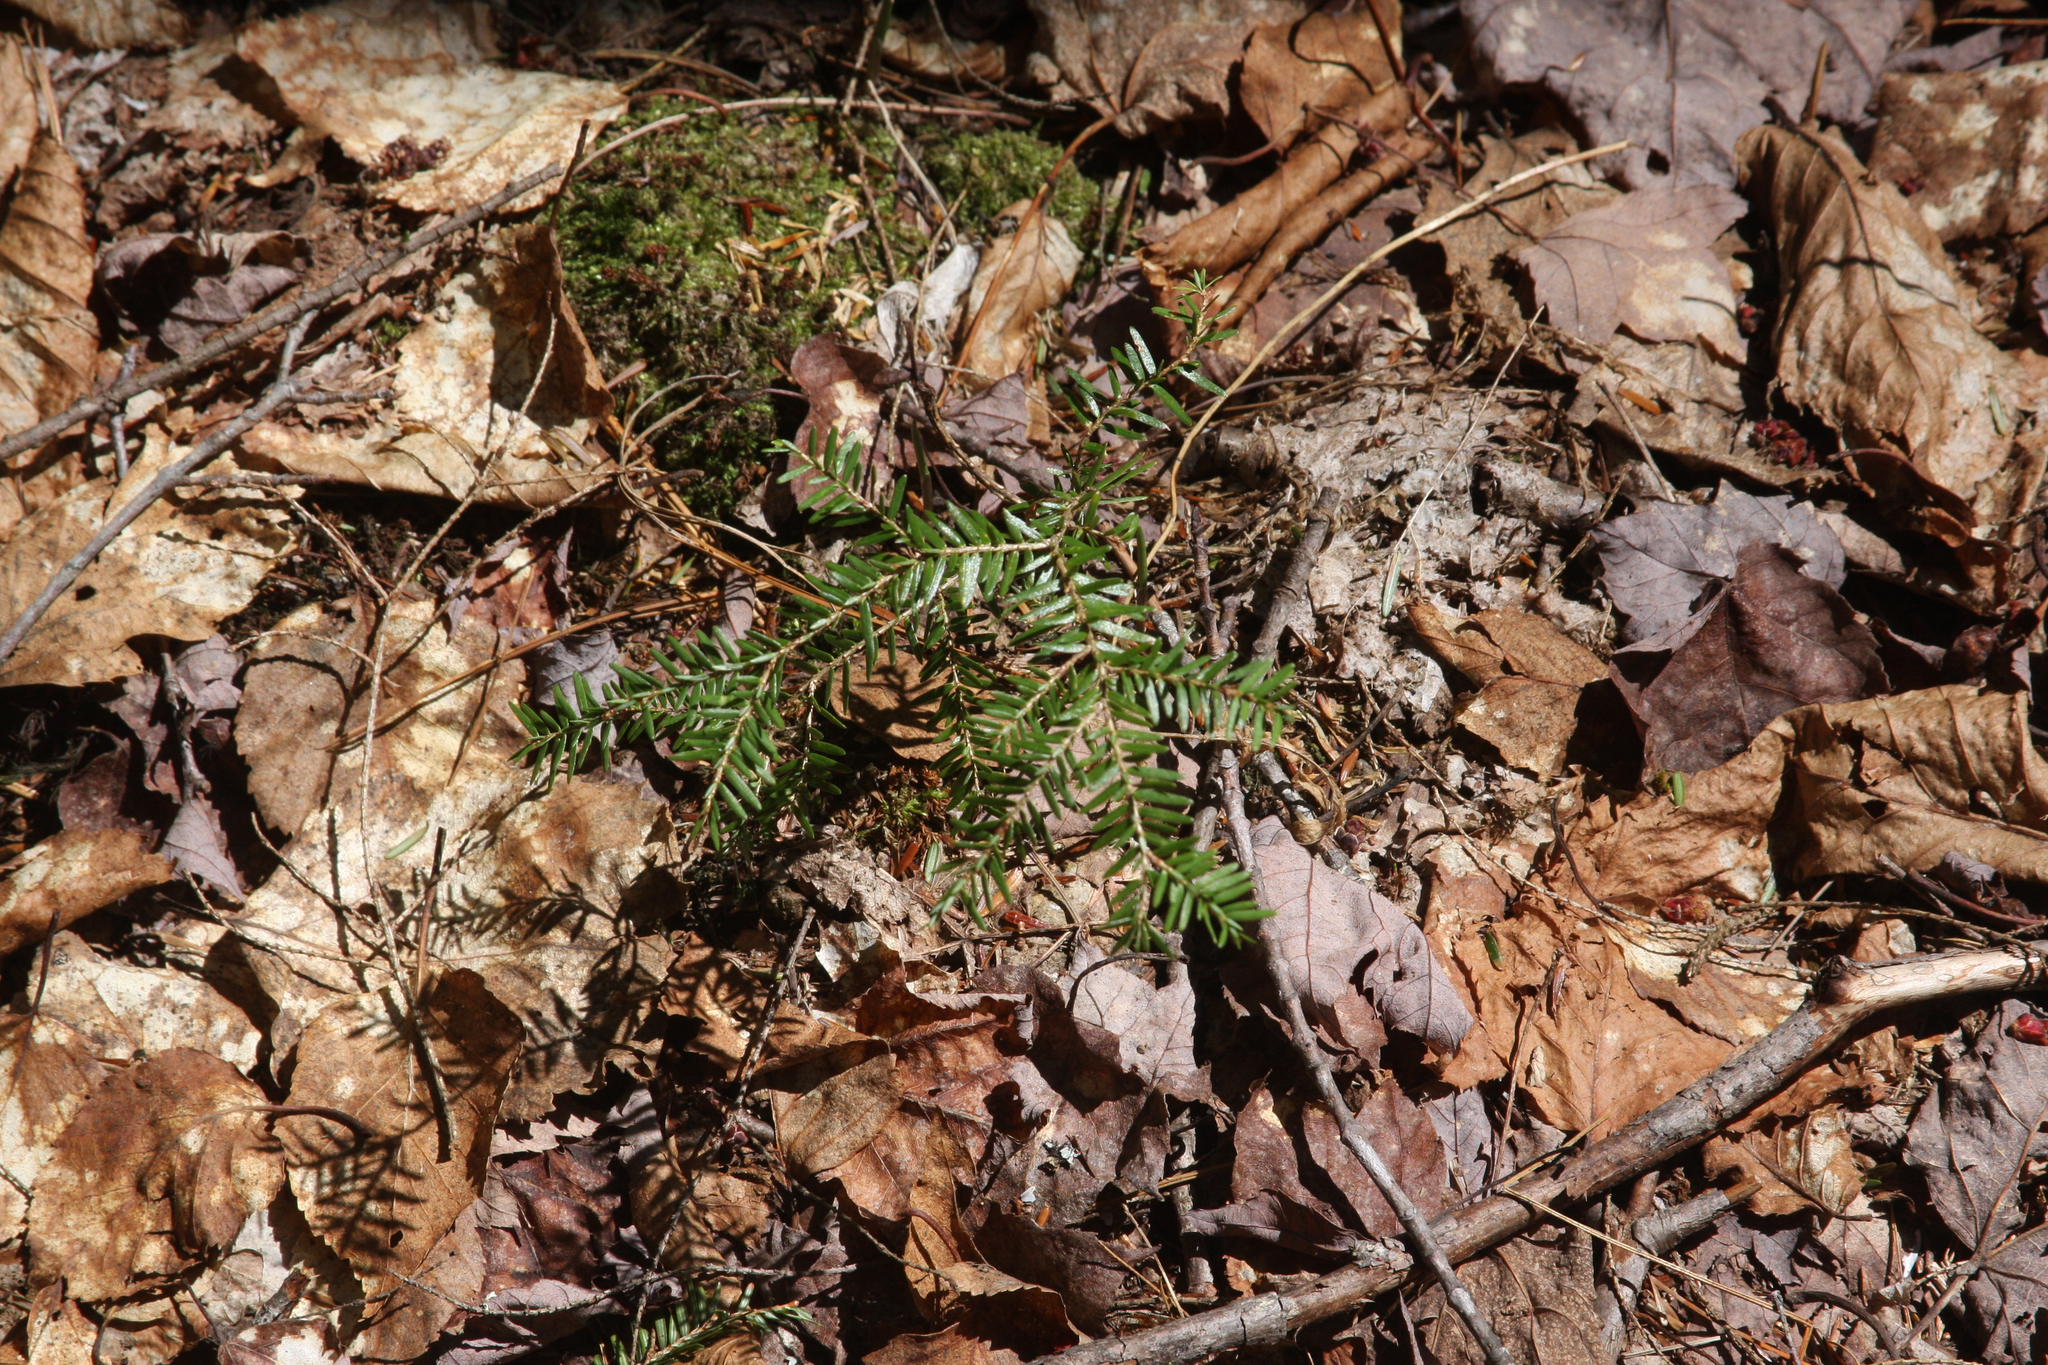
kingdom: Plantae
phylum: Tracheophyta
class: Pinopsida
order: Pinales
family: Pinaceae
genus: Tsuga
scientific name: Tsuga canadensis
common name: Eastern hemlock
